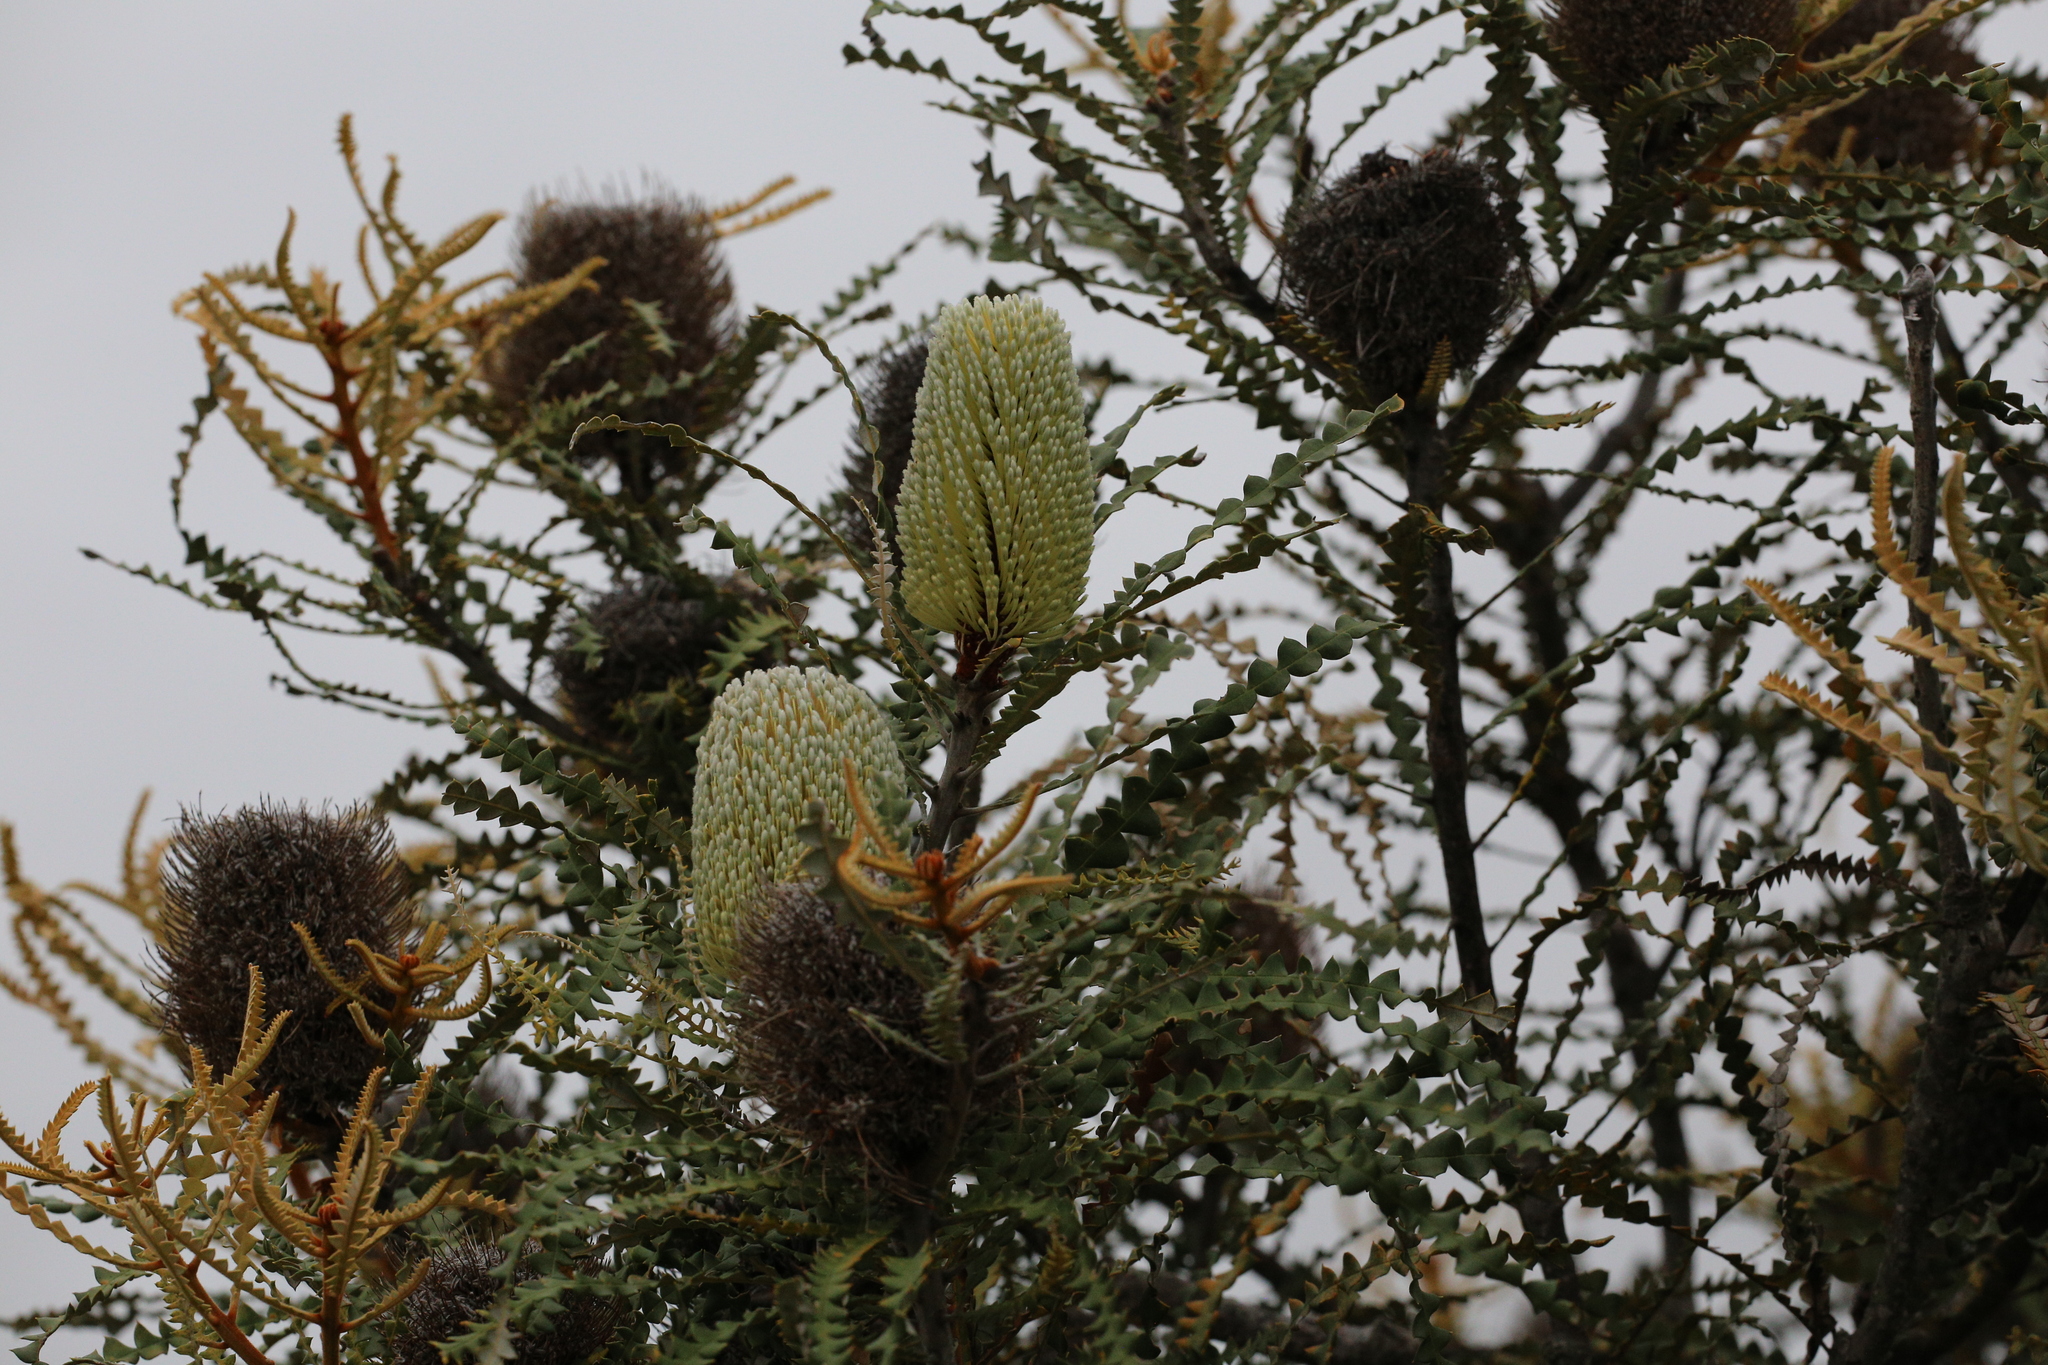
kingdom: Plantae
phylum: Tracheophyta
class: Magnoliopsida
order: Proteales
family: Proteaceae
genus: Banksia
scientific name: Banksia speciosa
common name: Showy banksia
